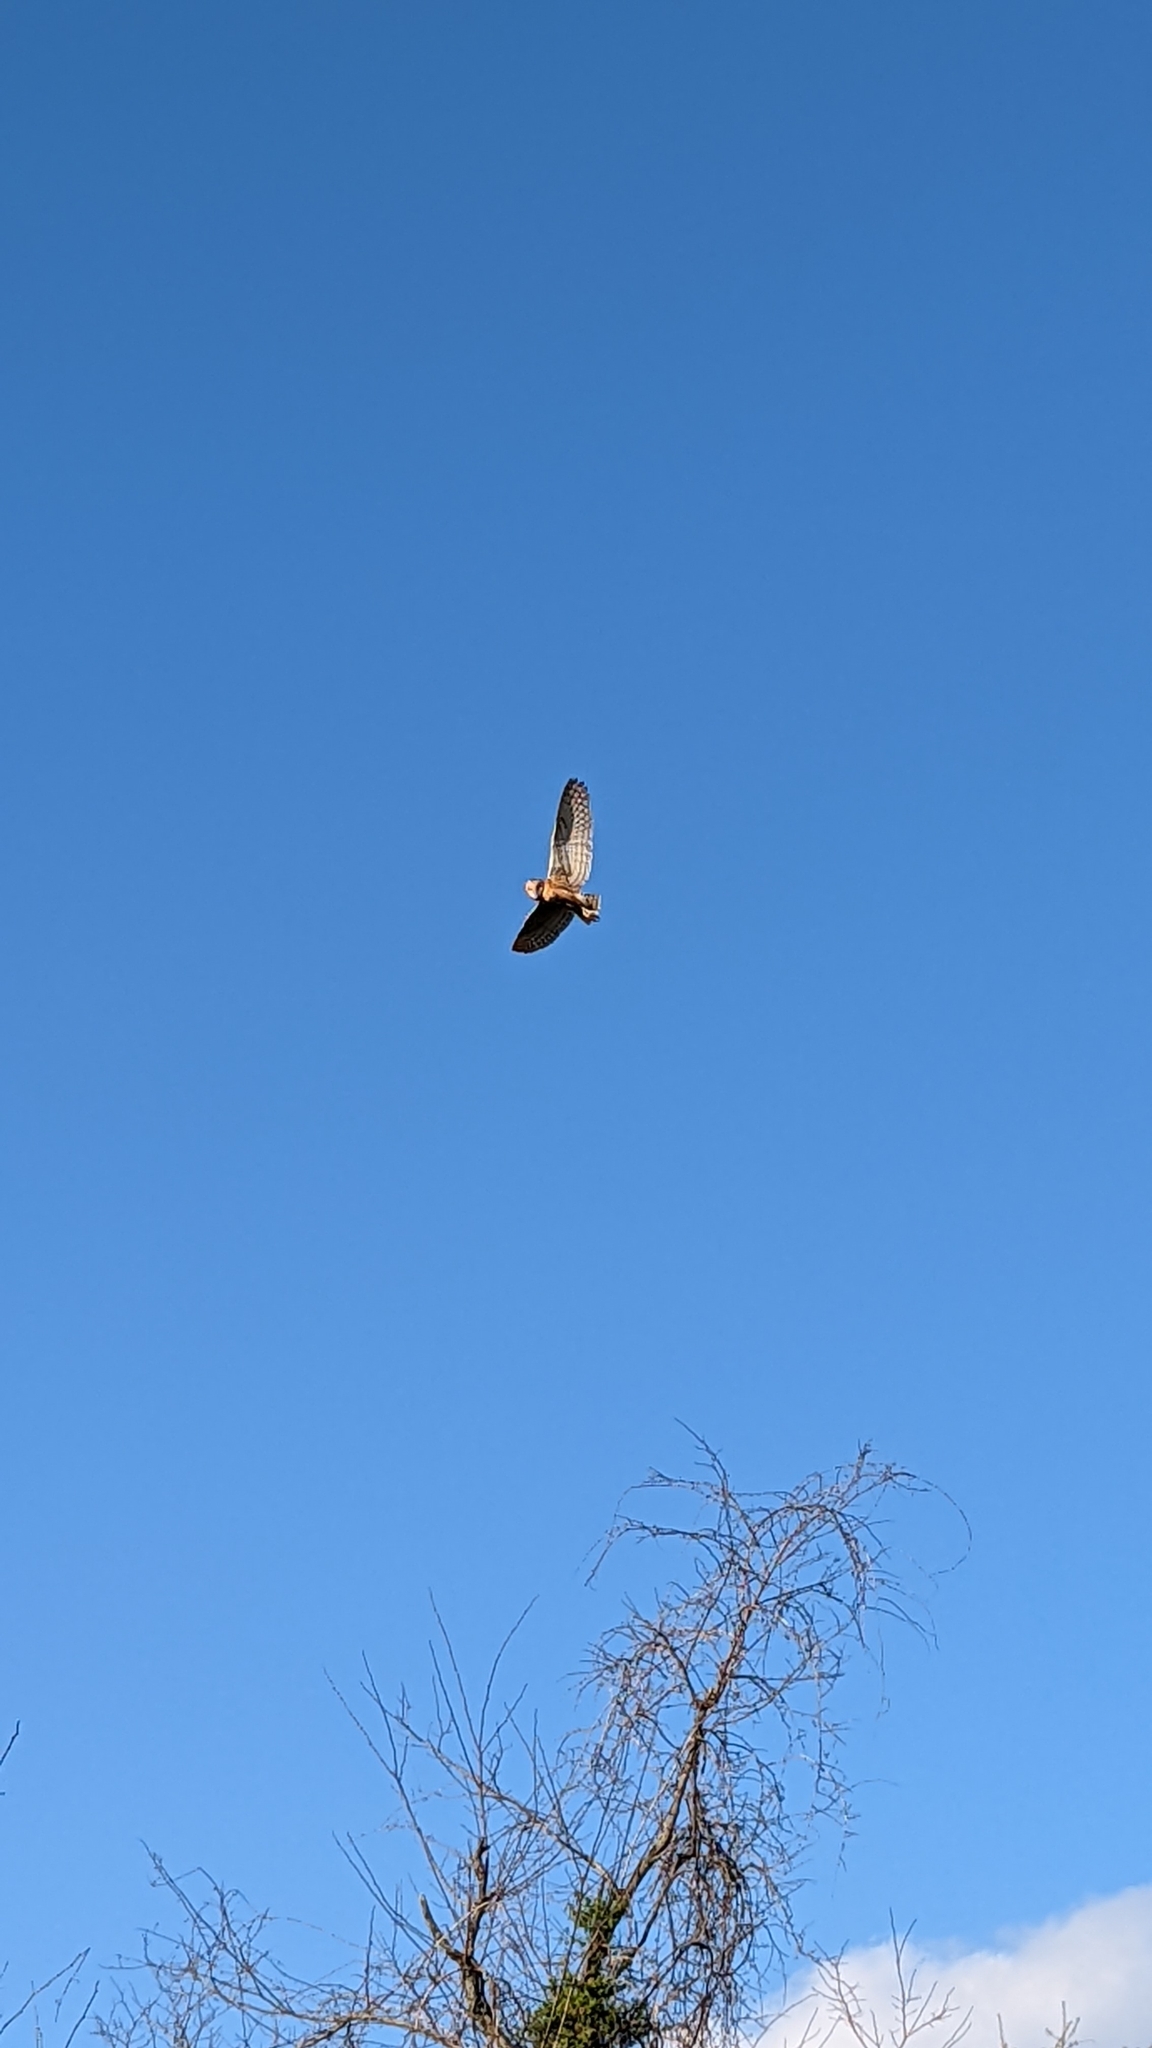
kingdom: Animalia
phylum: Chordata
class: Aves
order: Strigiformes
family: Tytonidae
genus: Tyto
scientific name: Tyto alba
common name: Barn owl
